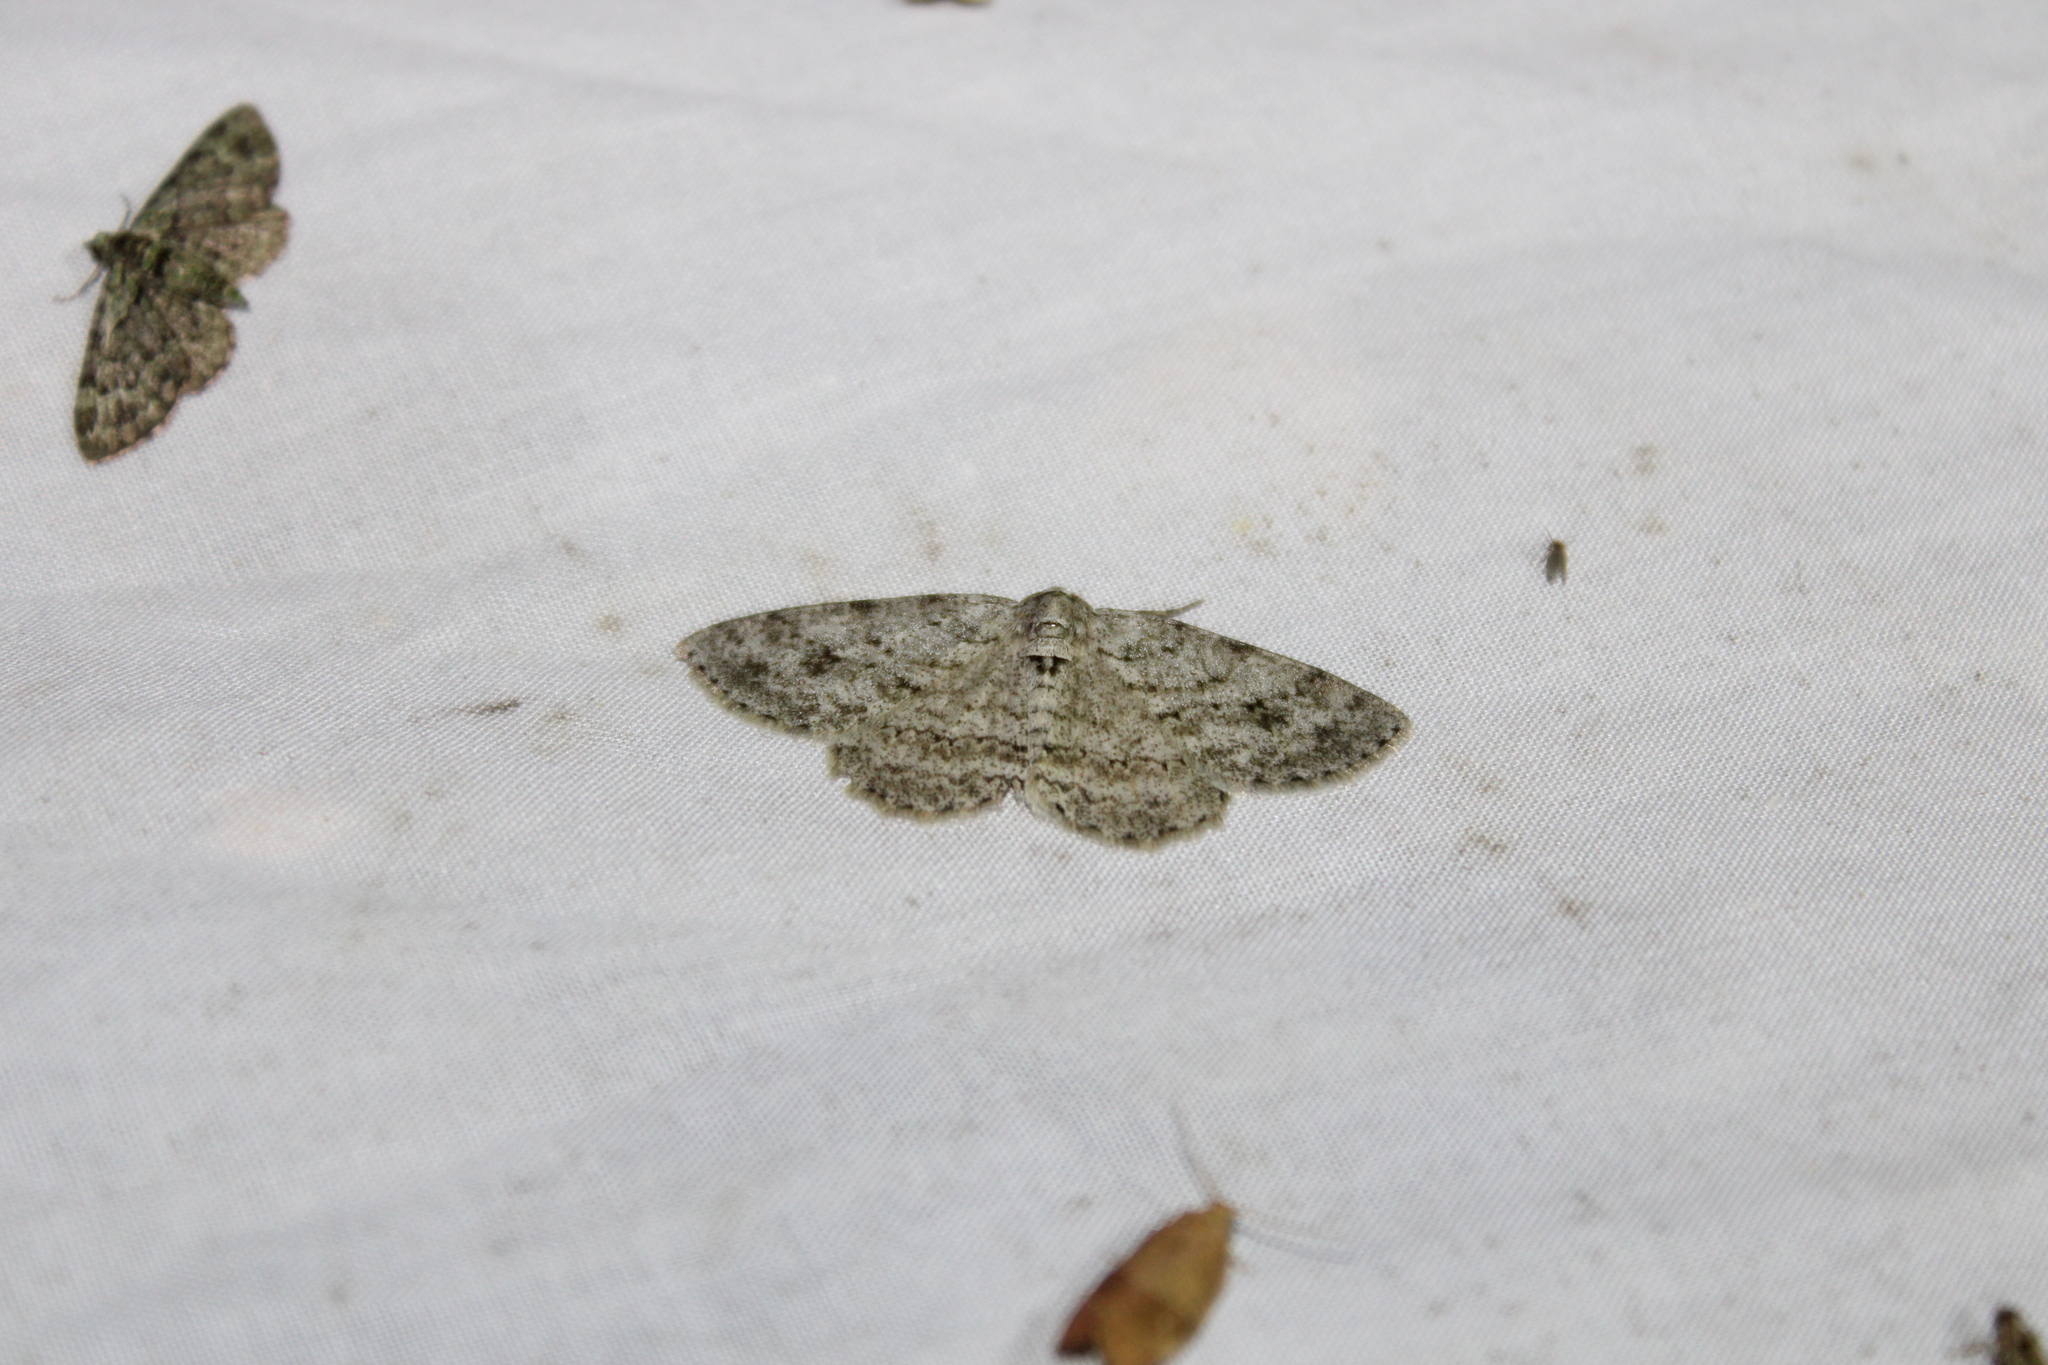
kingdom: Animalia
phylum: Arthropoda
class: Insecta
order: Lepidoptera
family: Geometridae
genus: Ectropis
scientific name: Ectropis crepuscularia
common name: Engrailed
